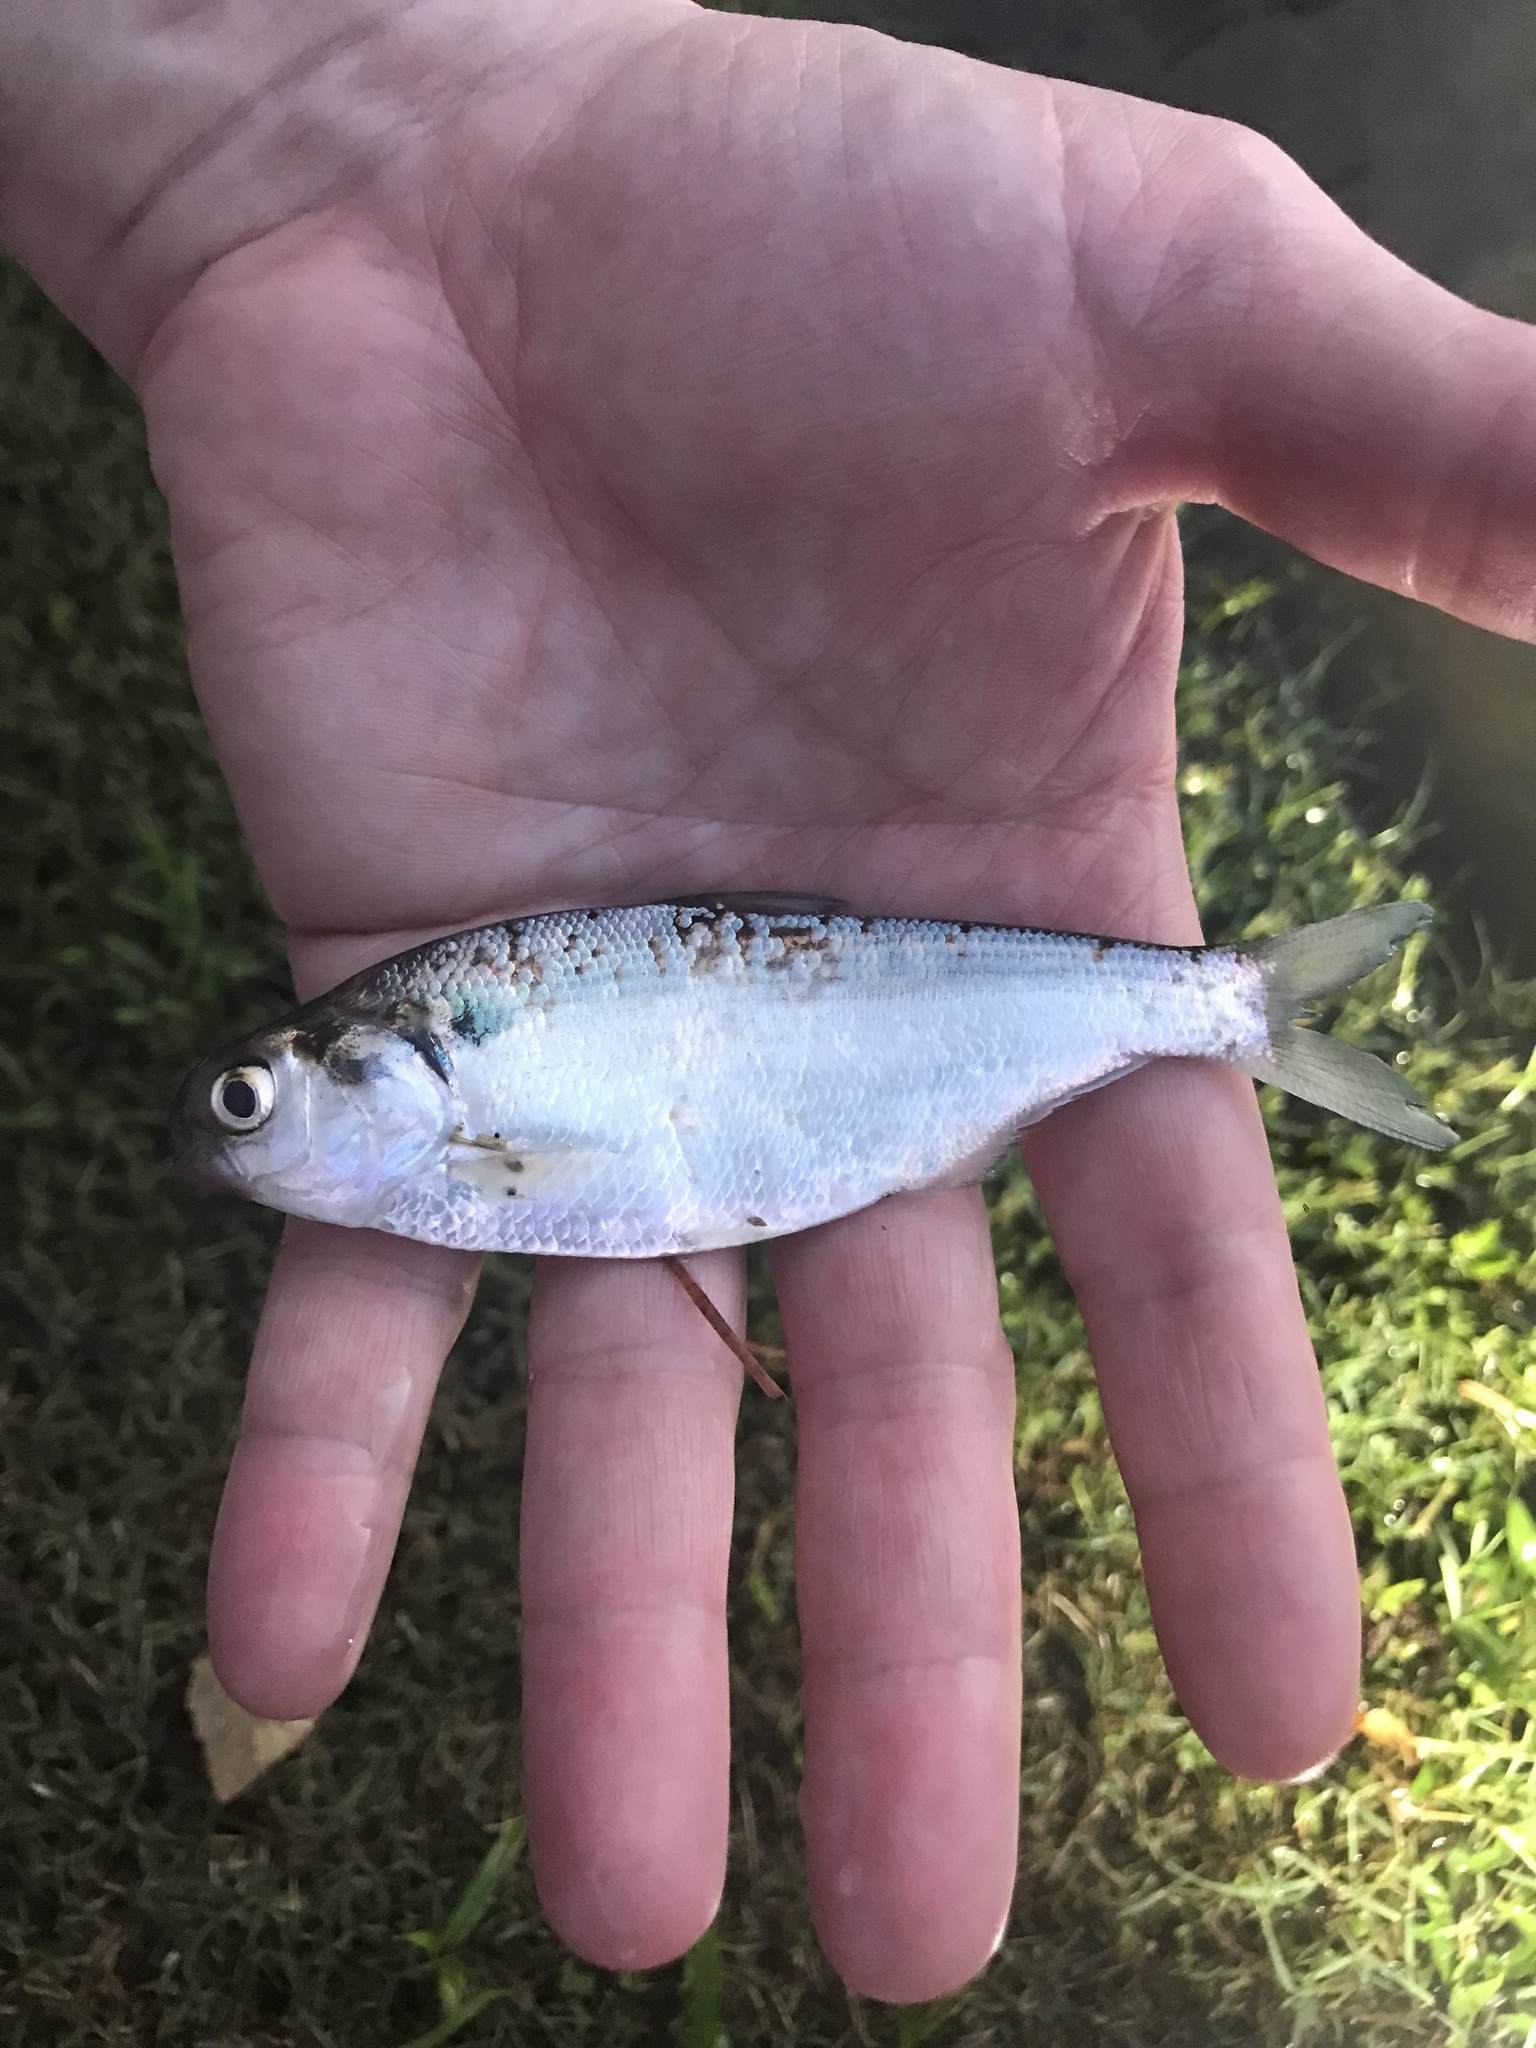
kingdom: Animalia
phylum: Chordata
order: Clupeiformes
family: Clupeidae
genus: Dorosoma
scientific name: Dorosoma cepedianum
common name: Gizzard shad
